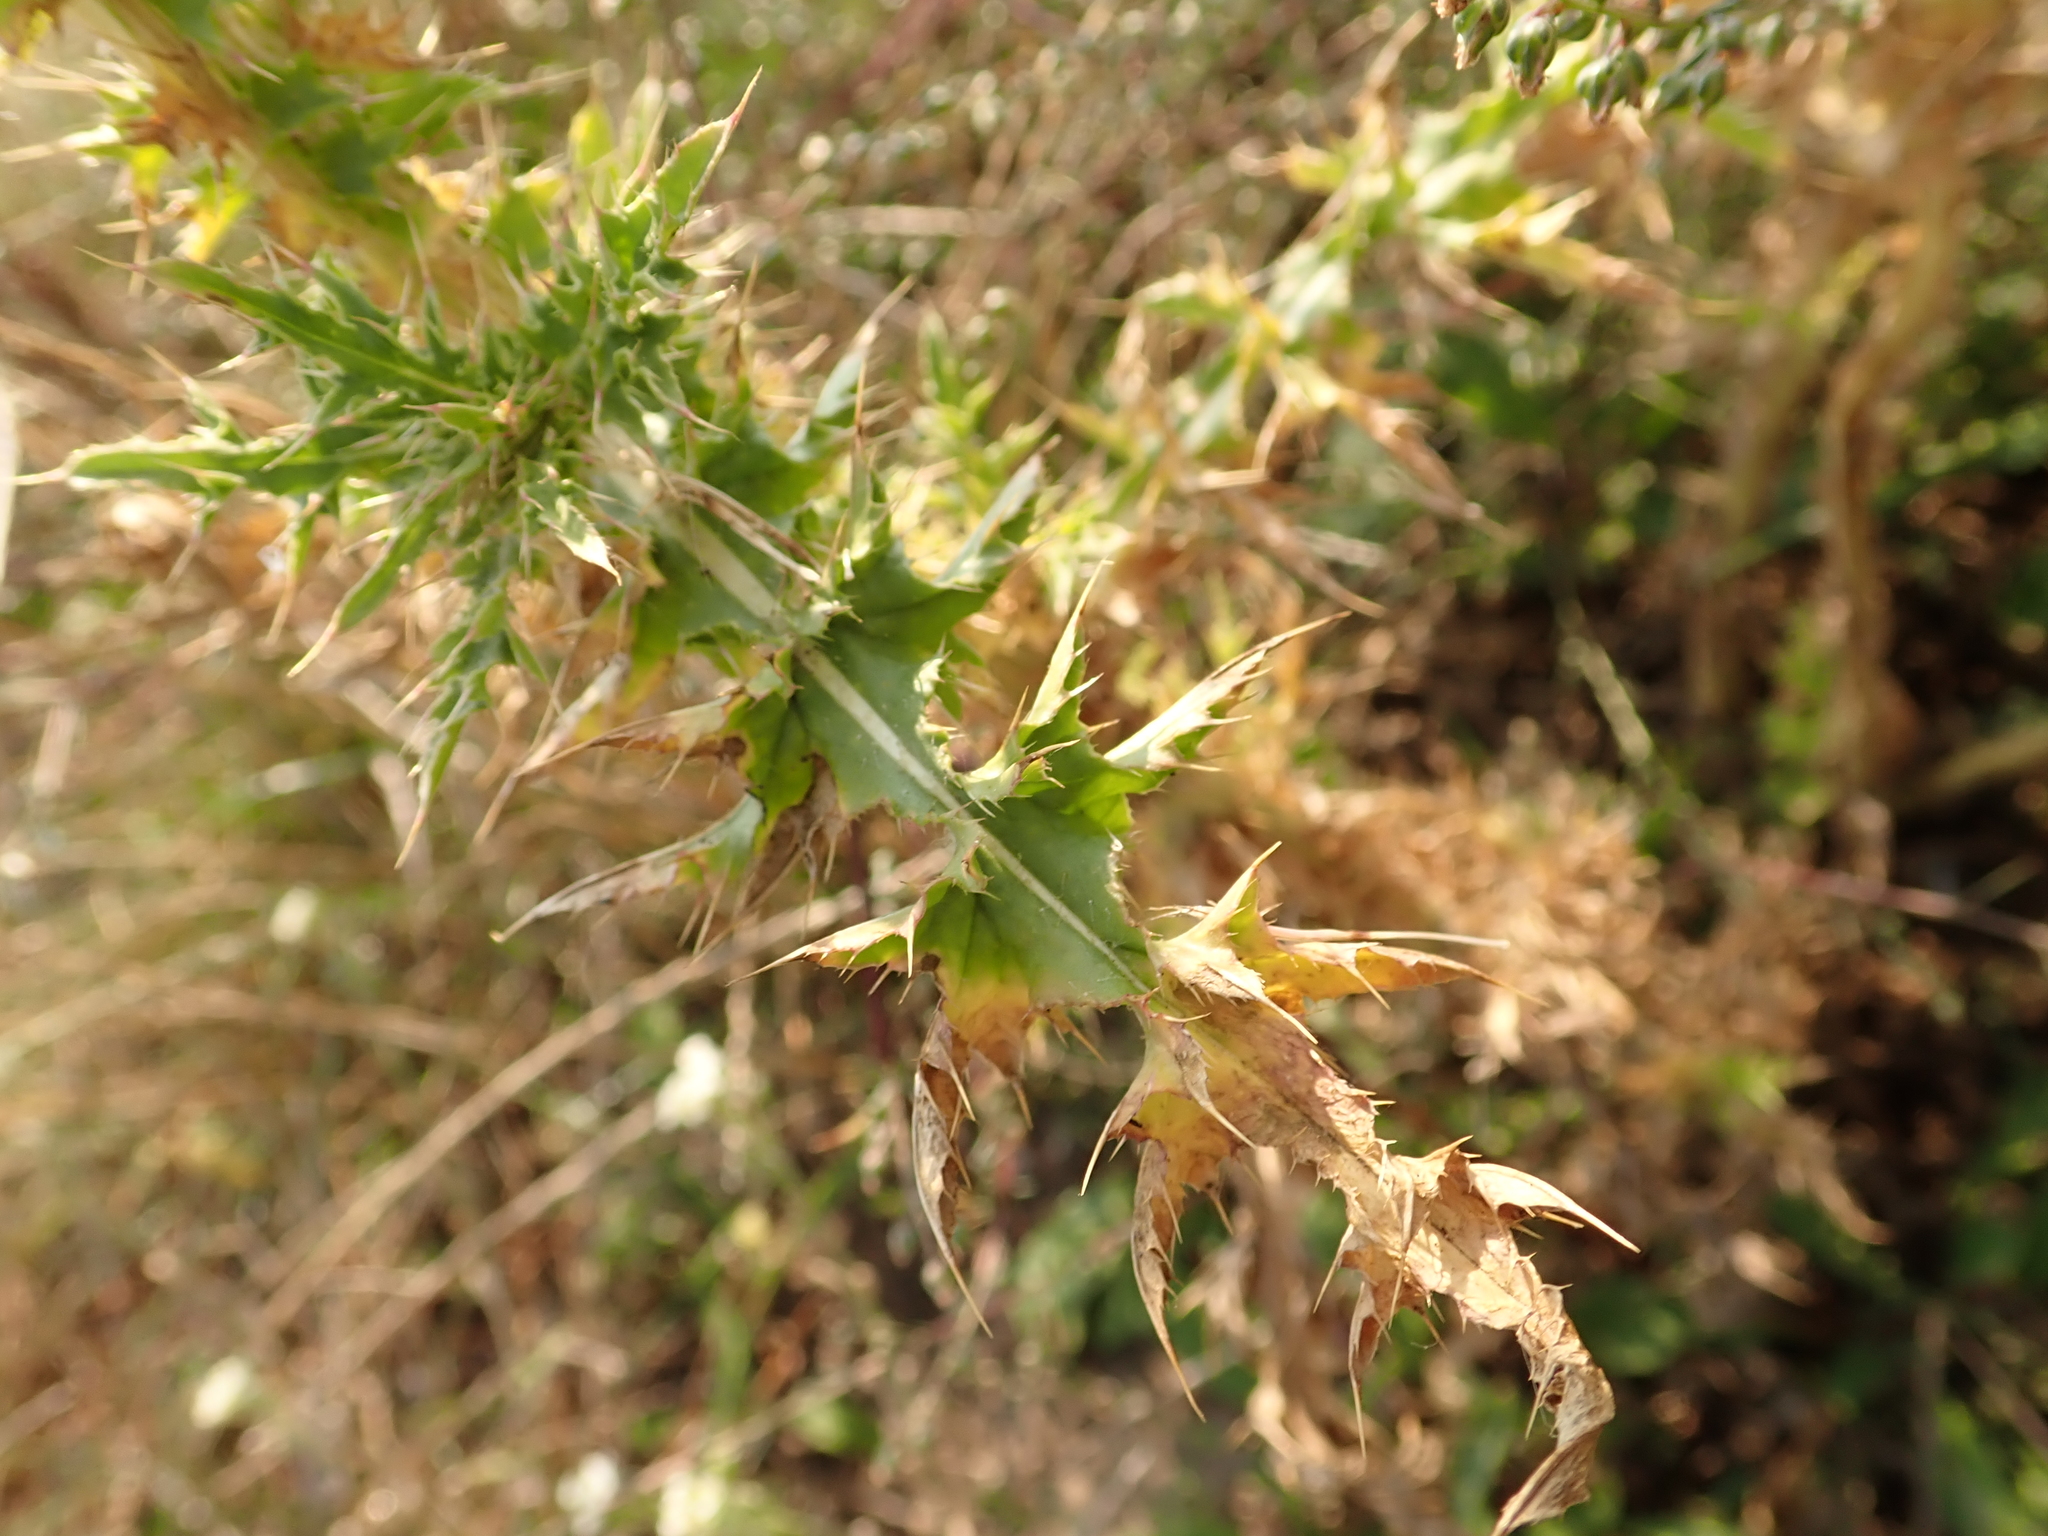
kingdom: Plantae
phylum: Tracheophyta
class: Magnoliopsida
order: Asterales
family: Asteraceae
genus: Carduus
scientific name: Carduus acanthoides
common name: Plumeless thistle
